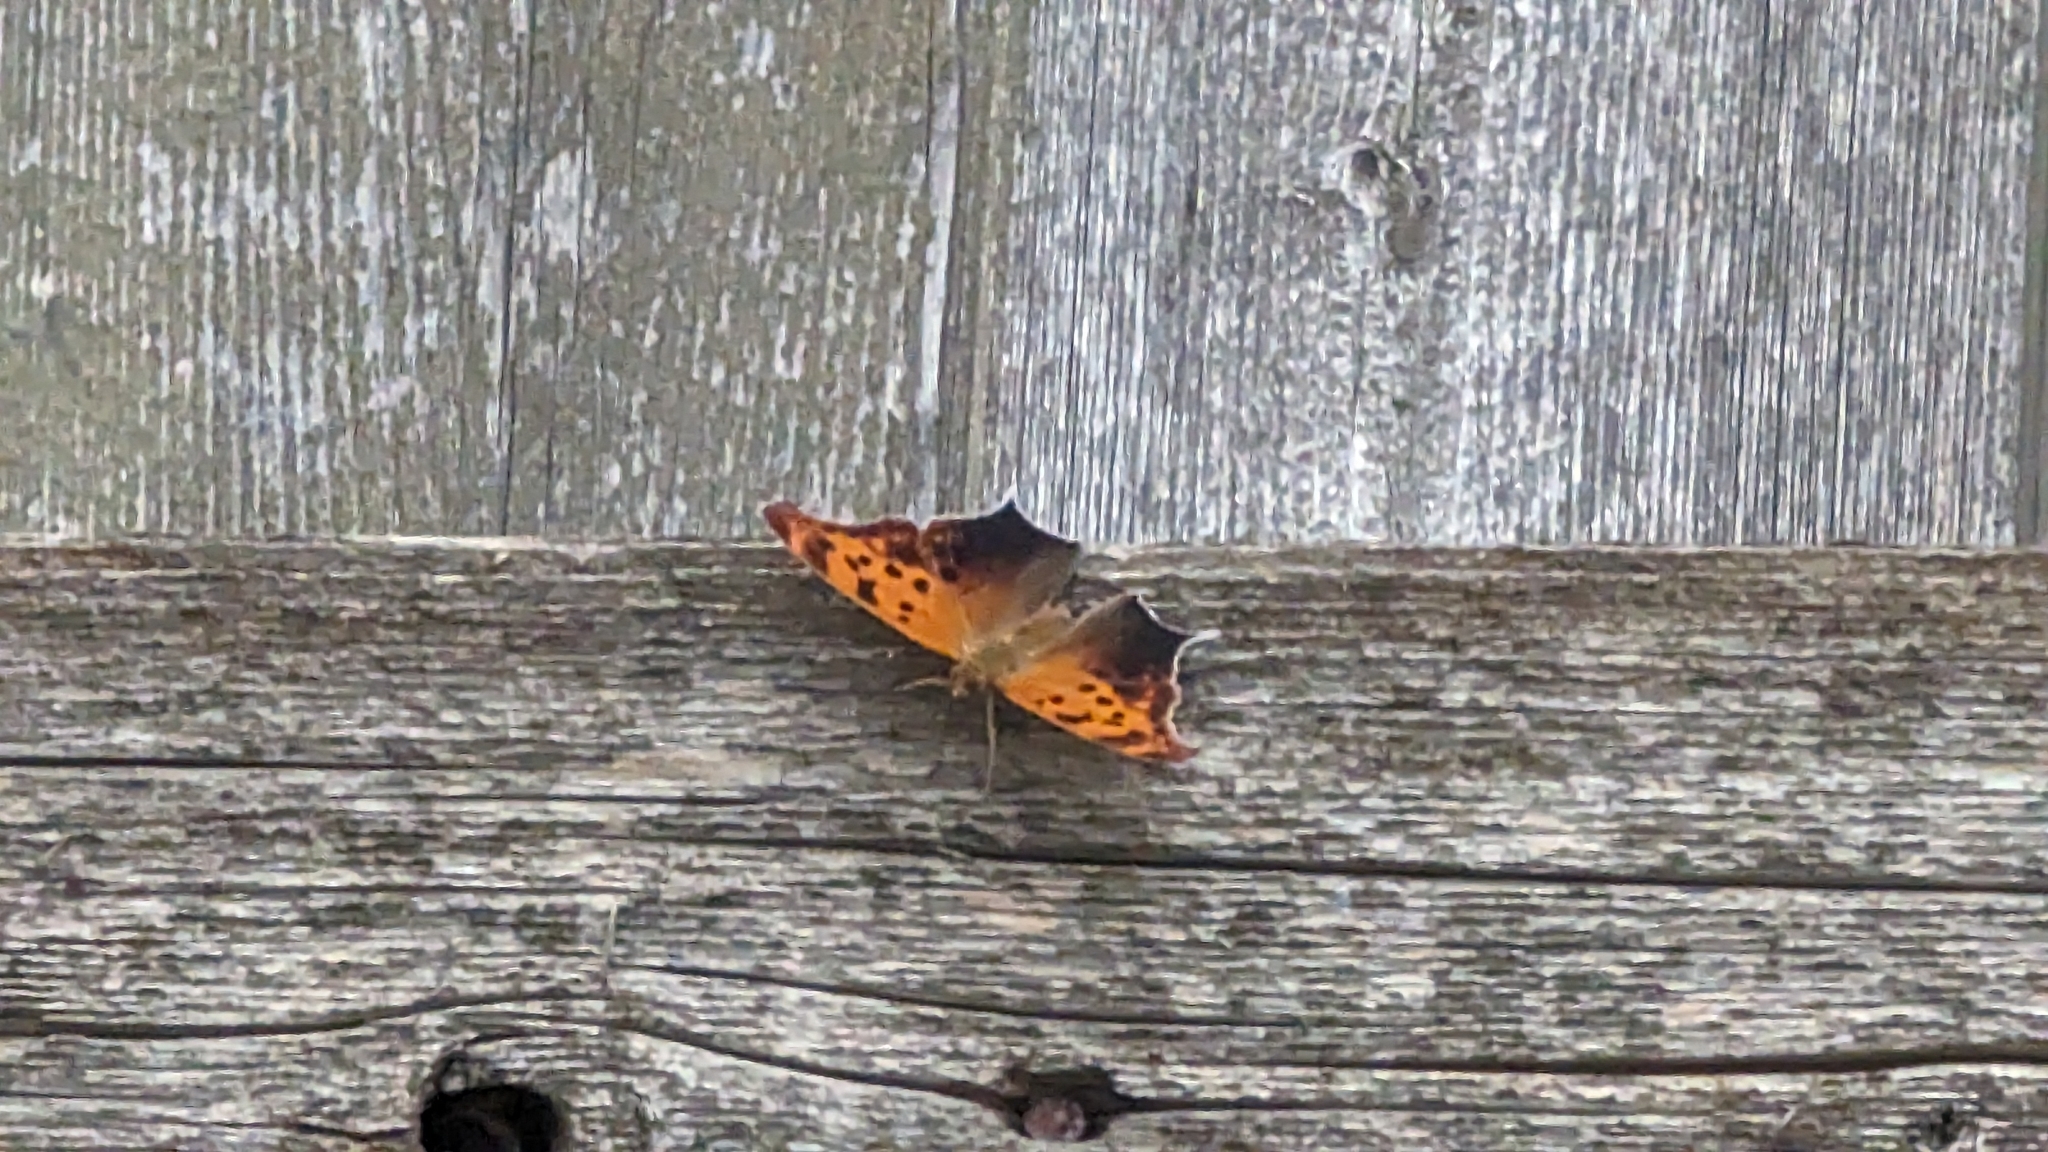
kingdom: Animalia
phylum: Arthropoda
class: Insecta
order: Lepidoptera
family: Nymphalidae
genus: Polygonia
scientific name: Polygonia interrogationis
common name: Question mark
